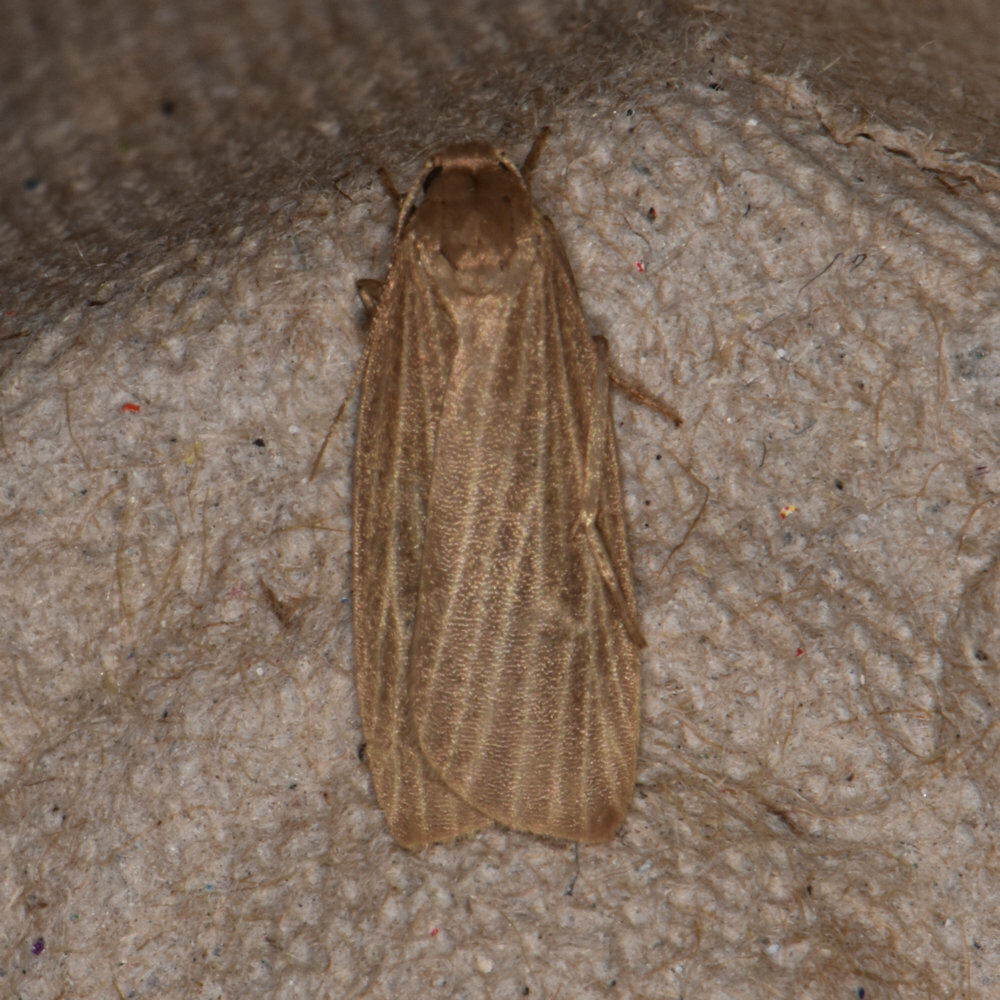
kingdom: Animalia
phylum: Arthropoda
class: Insecta
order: Lepidoptera
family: Erebidae
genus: Crambidia
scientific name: Crambidia pallida
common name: Pale lichen moth
